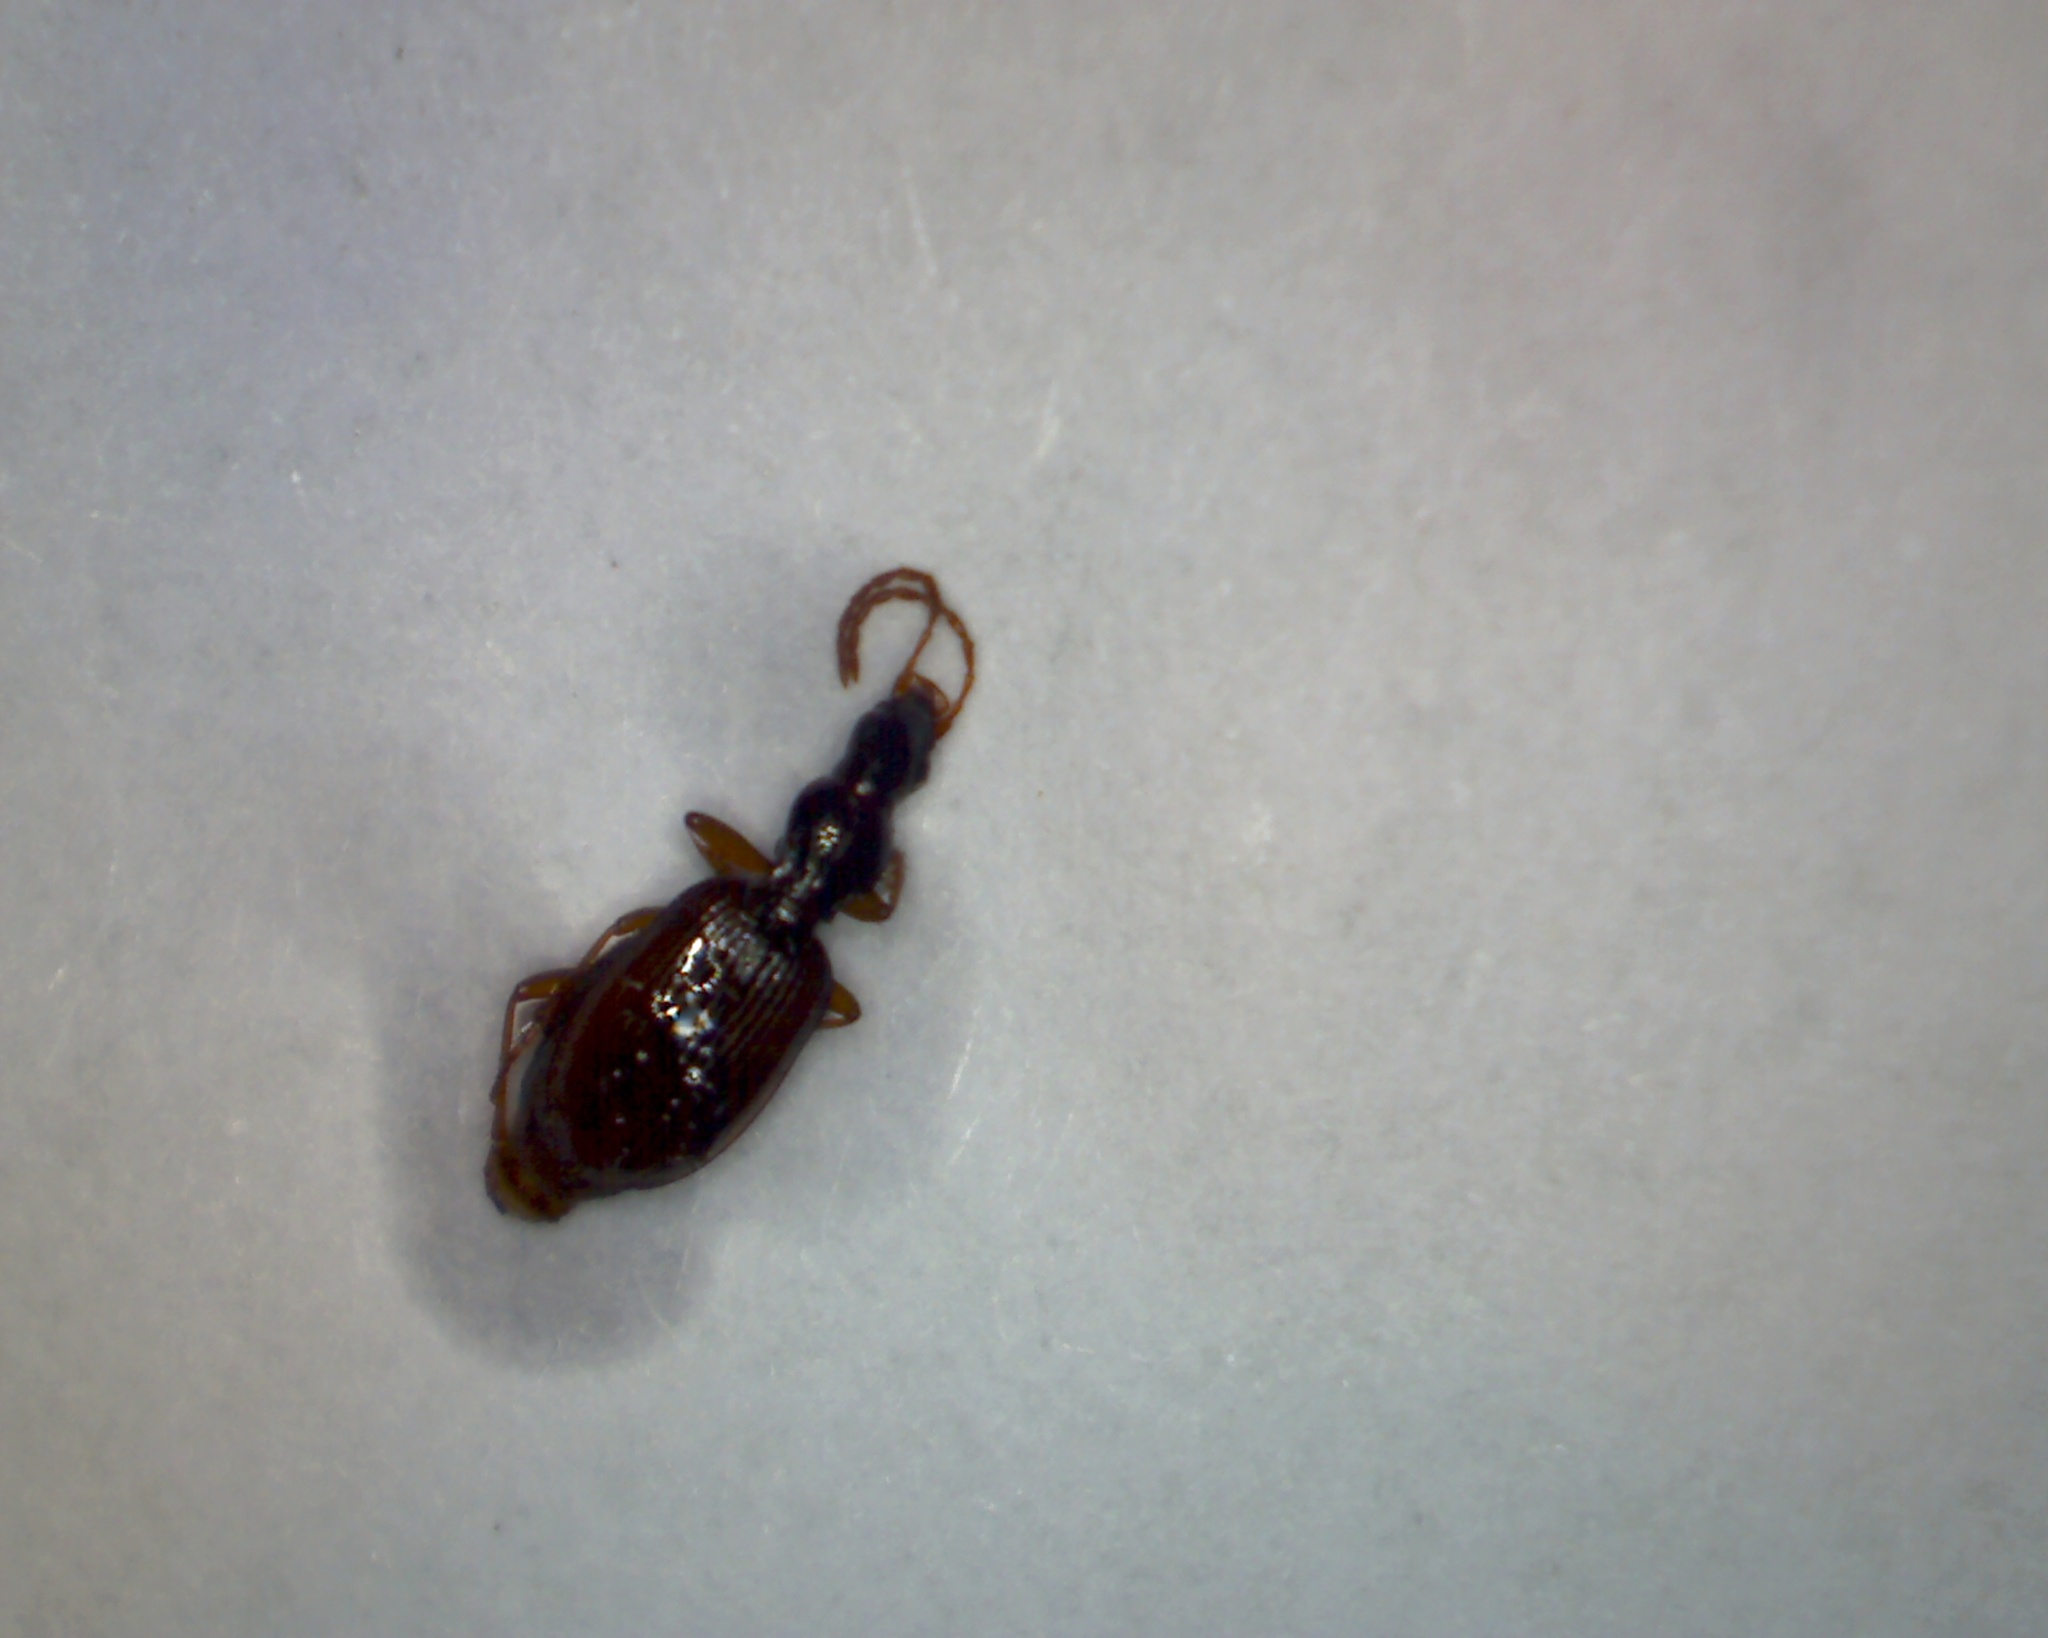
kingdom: Animalia
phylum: Arthropoda
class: Insecta
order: Coleoptera
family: Carabidae
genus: Oxypselaphus
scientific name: Oxypselaphus obscurus
